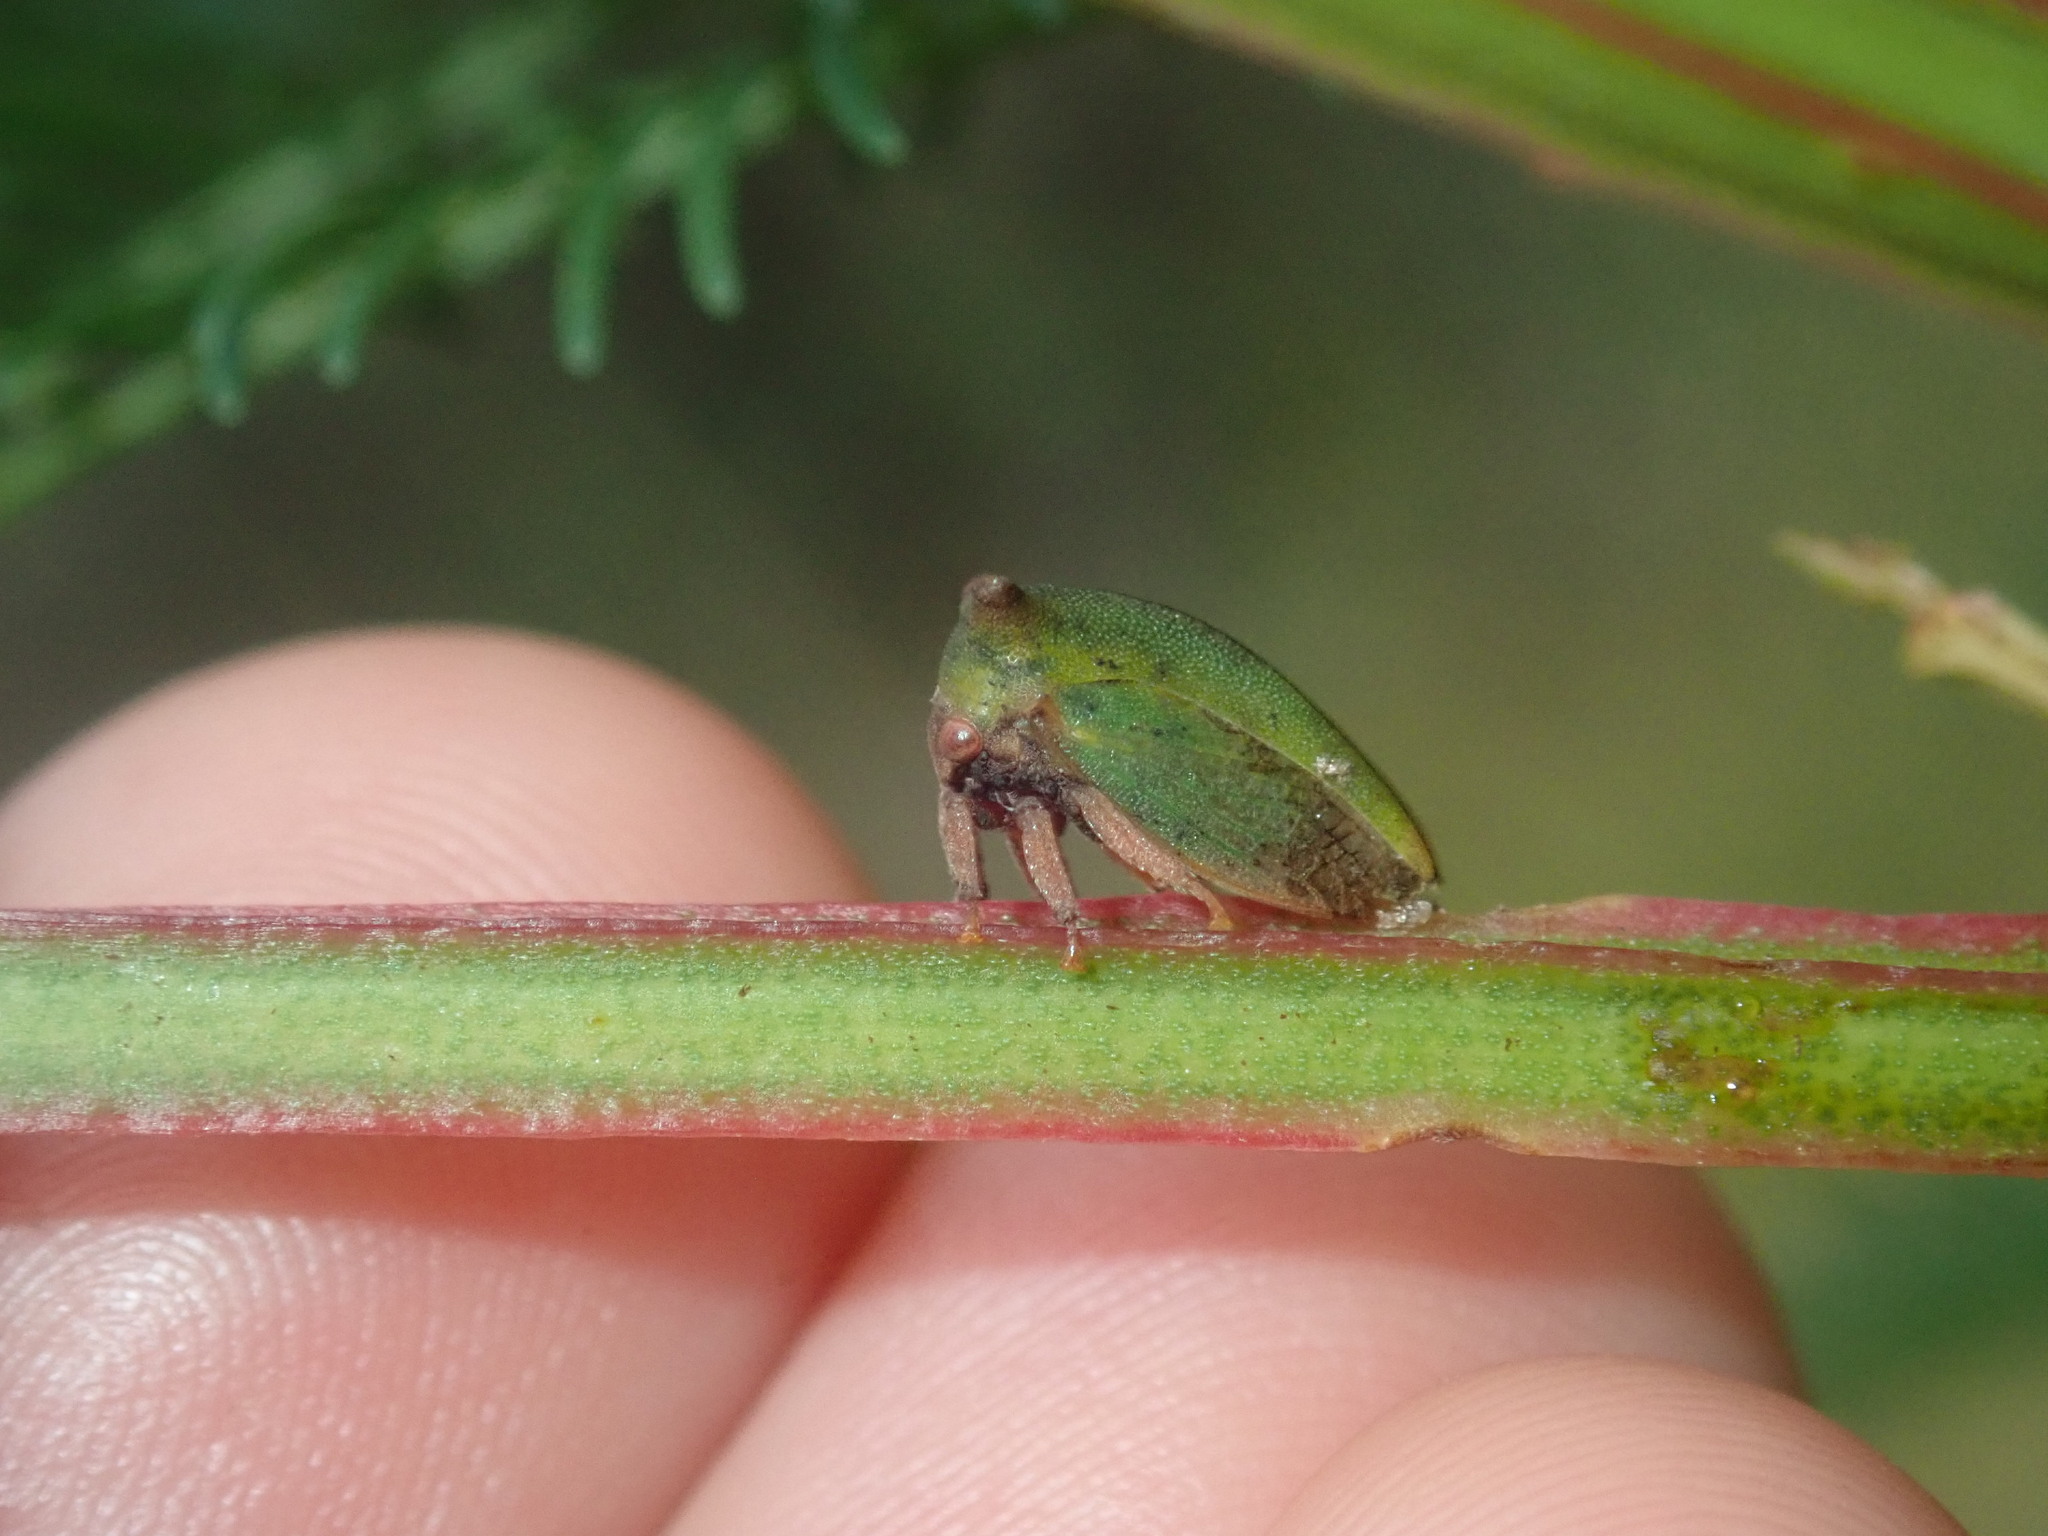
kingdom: Animalia
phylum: Arthropoda
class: Insecta
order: Hemiptera
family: Membracidae
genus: Sextius
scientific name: Sextius virescens
